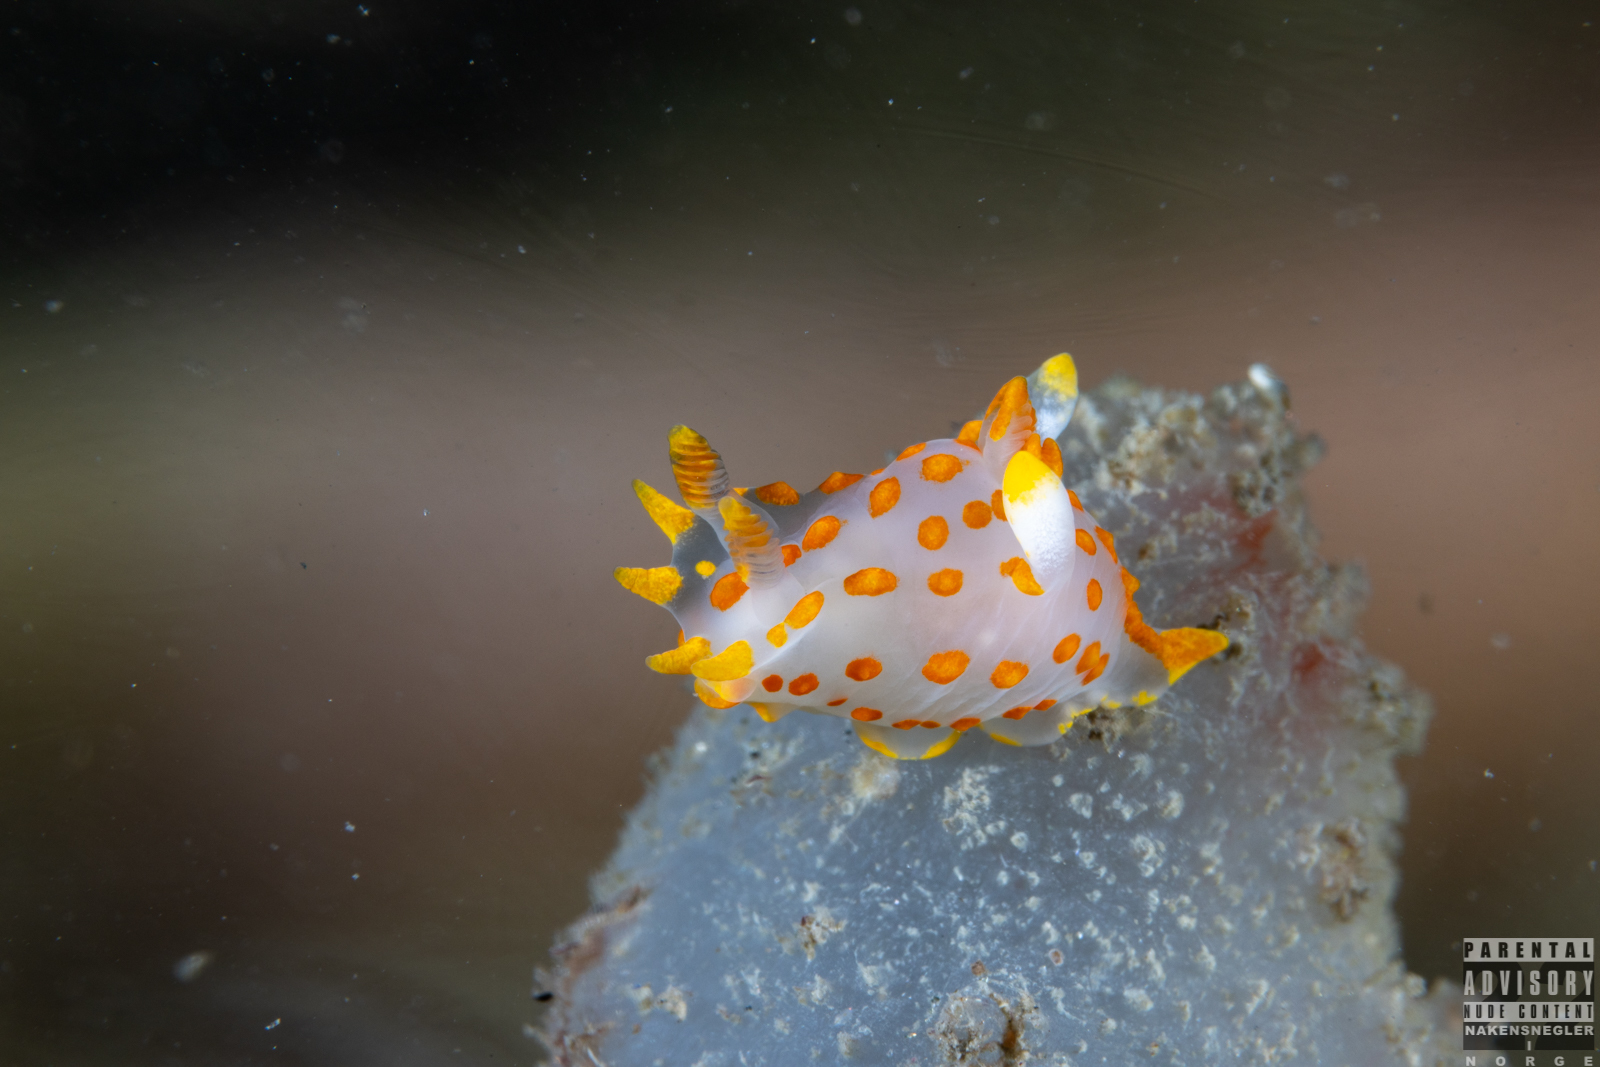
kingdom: Animalia
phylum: Mollusca
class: Gastropoda
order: Nudibranchia
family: Polyceridae
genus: Polycera
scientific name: Polycera quadrilineata
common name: Four-striped polycera
